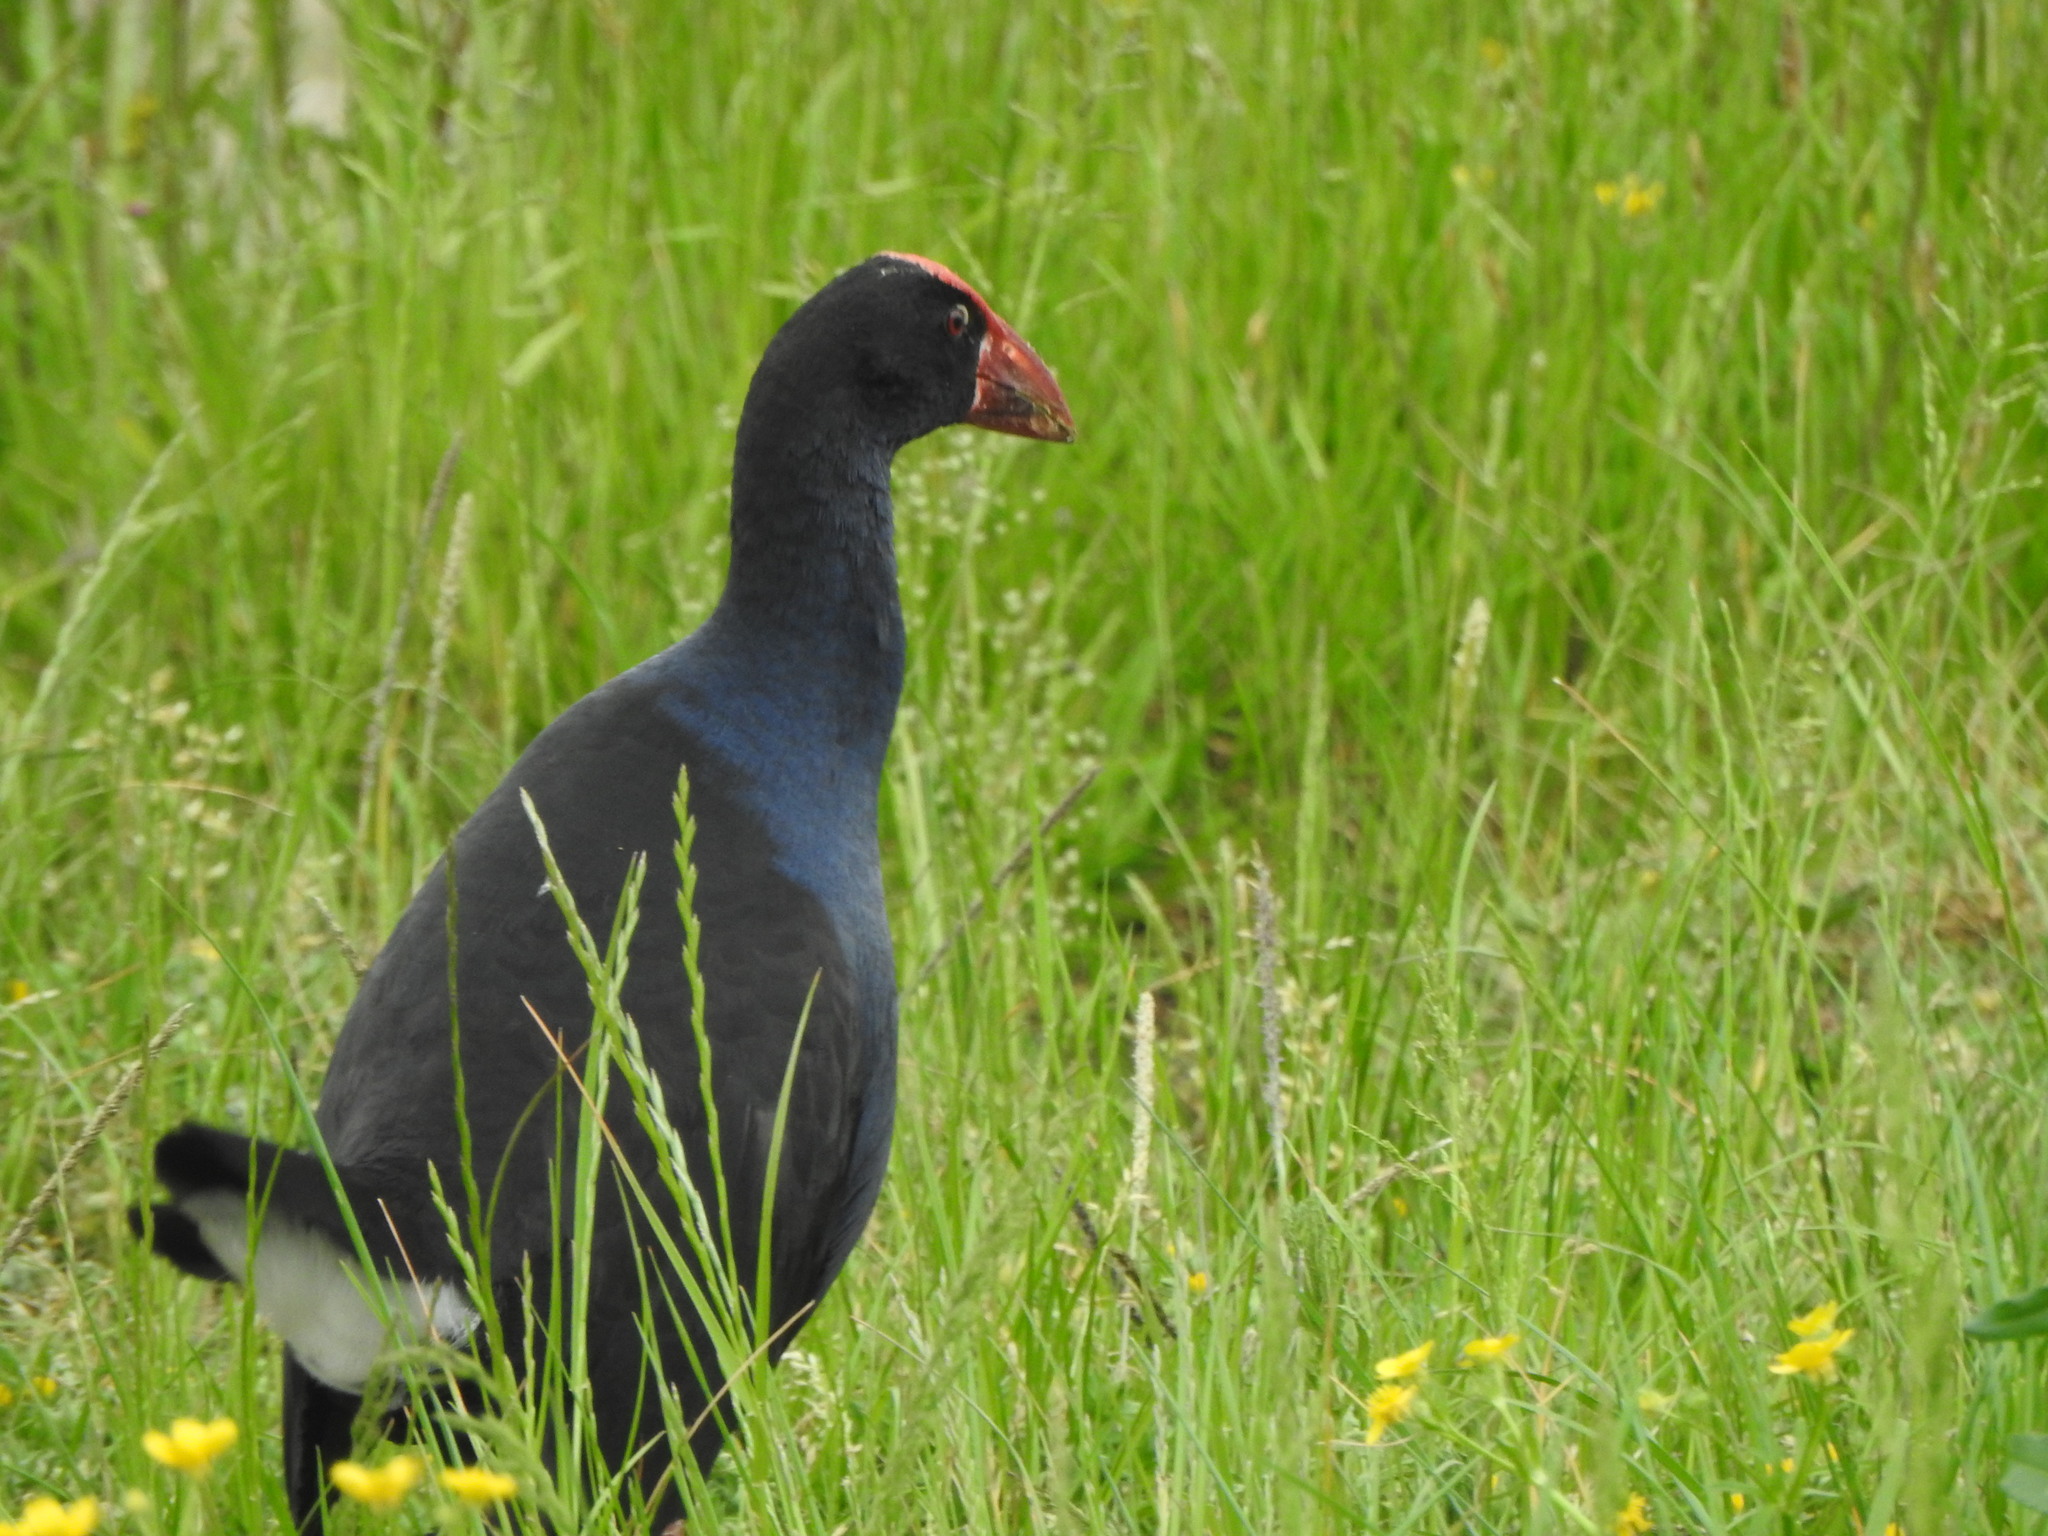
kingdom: Animalia
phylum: Chordata
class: Aves
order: Gruiformes
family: Rallidae
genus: Porphyrio
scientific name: Porphyrio melanotus
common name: Australasian swamphen
